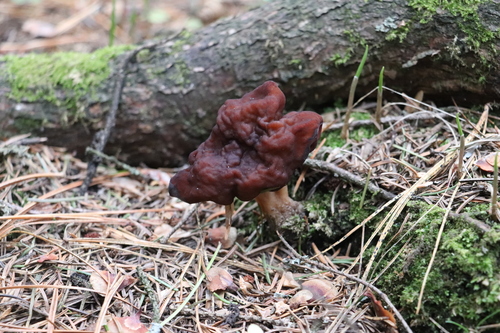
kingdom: Fungi
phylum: Ascomycota
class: Pezizomycetes
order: Pezizales
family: Discinaceae
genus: Gyromitra
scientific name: Gyromitra esculenta
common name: False morel
